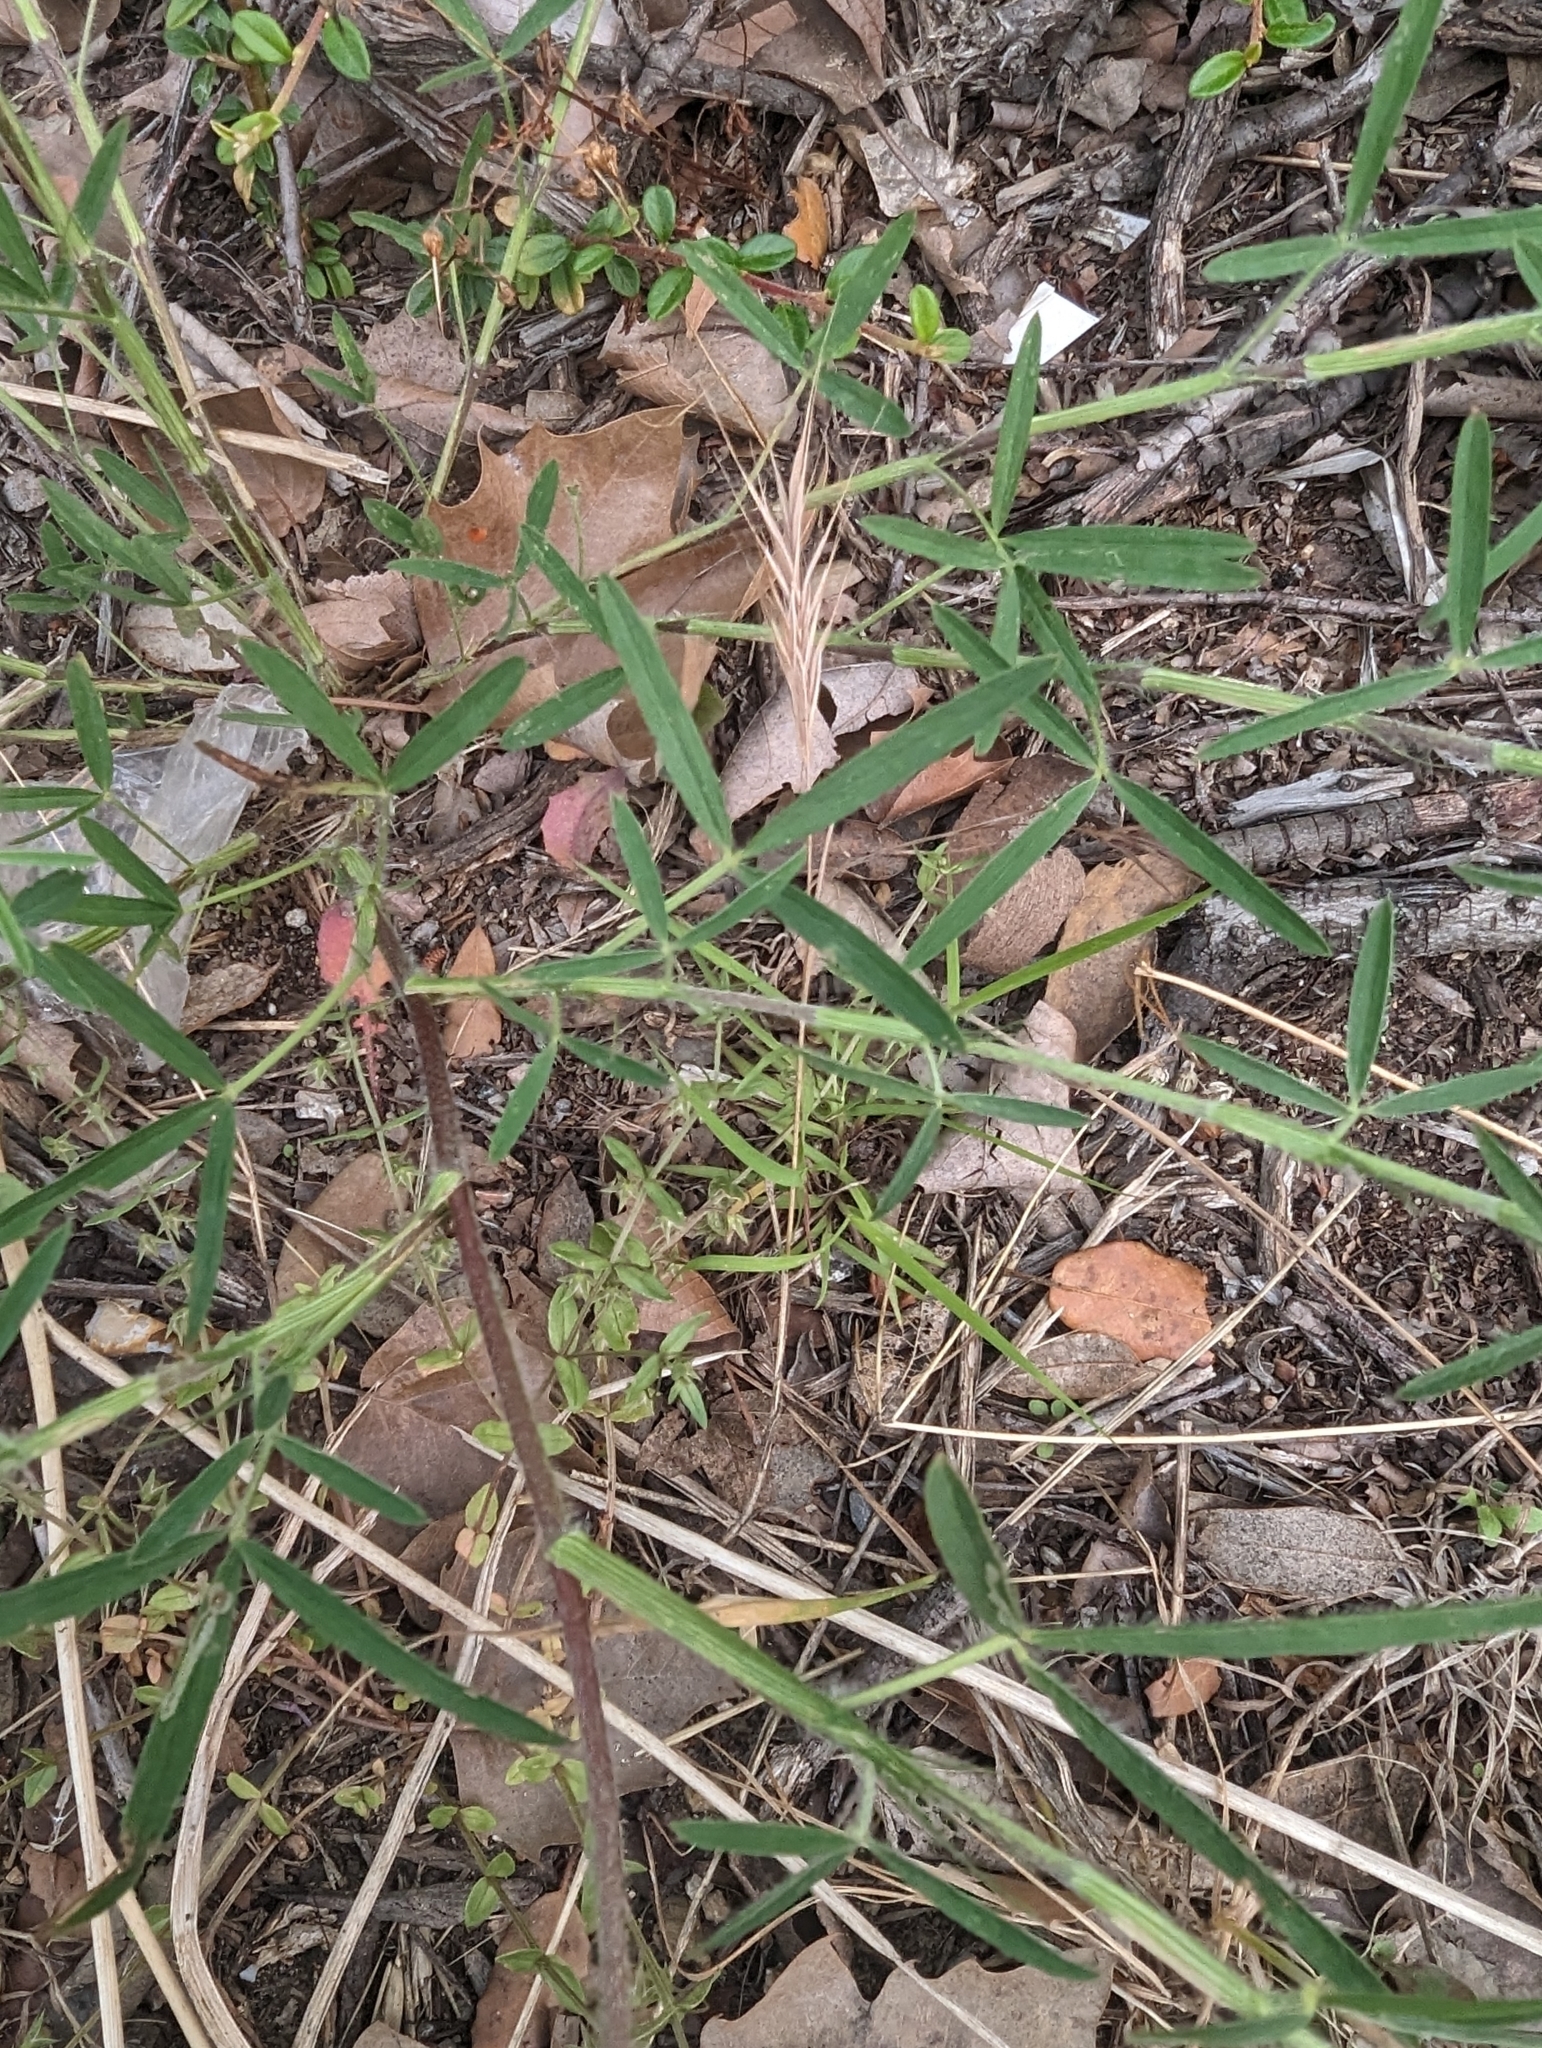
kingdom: Plantae
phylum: Tracheophyta
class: Magnoliopsida
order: Fabales
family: Fabaceae
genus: Trifolium
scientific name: Trifolium purpureum
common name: Purple clover
